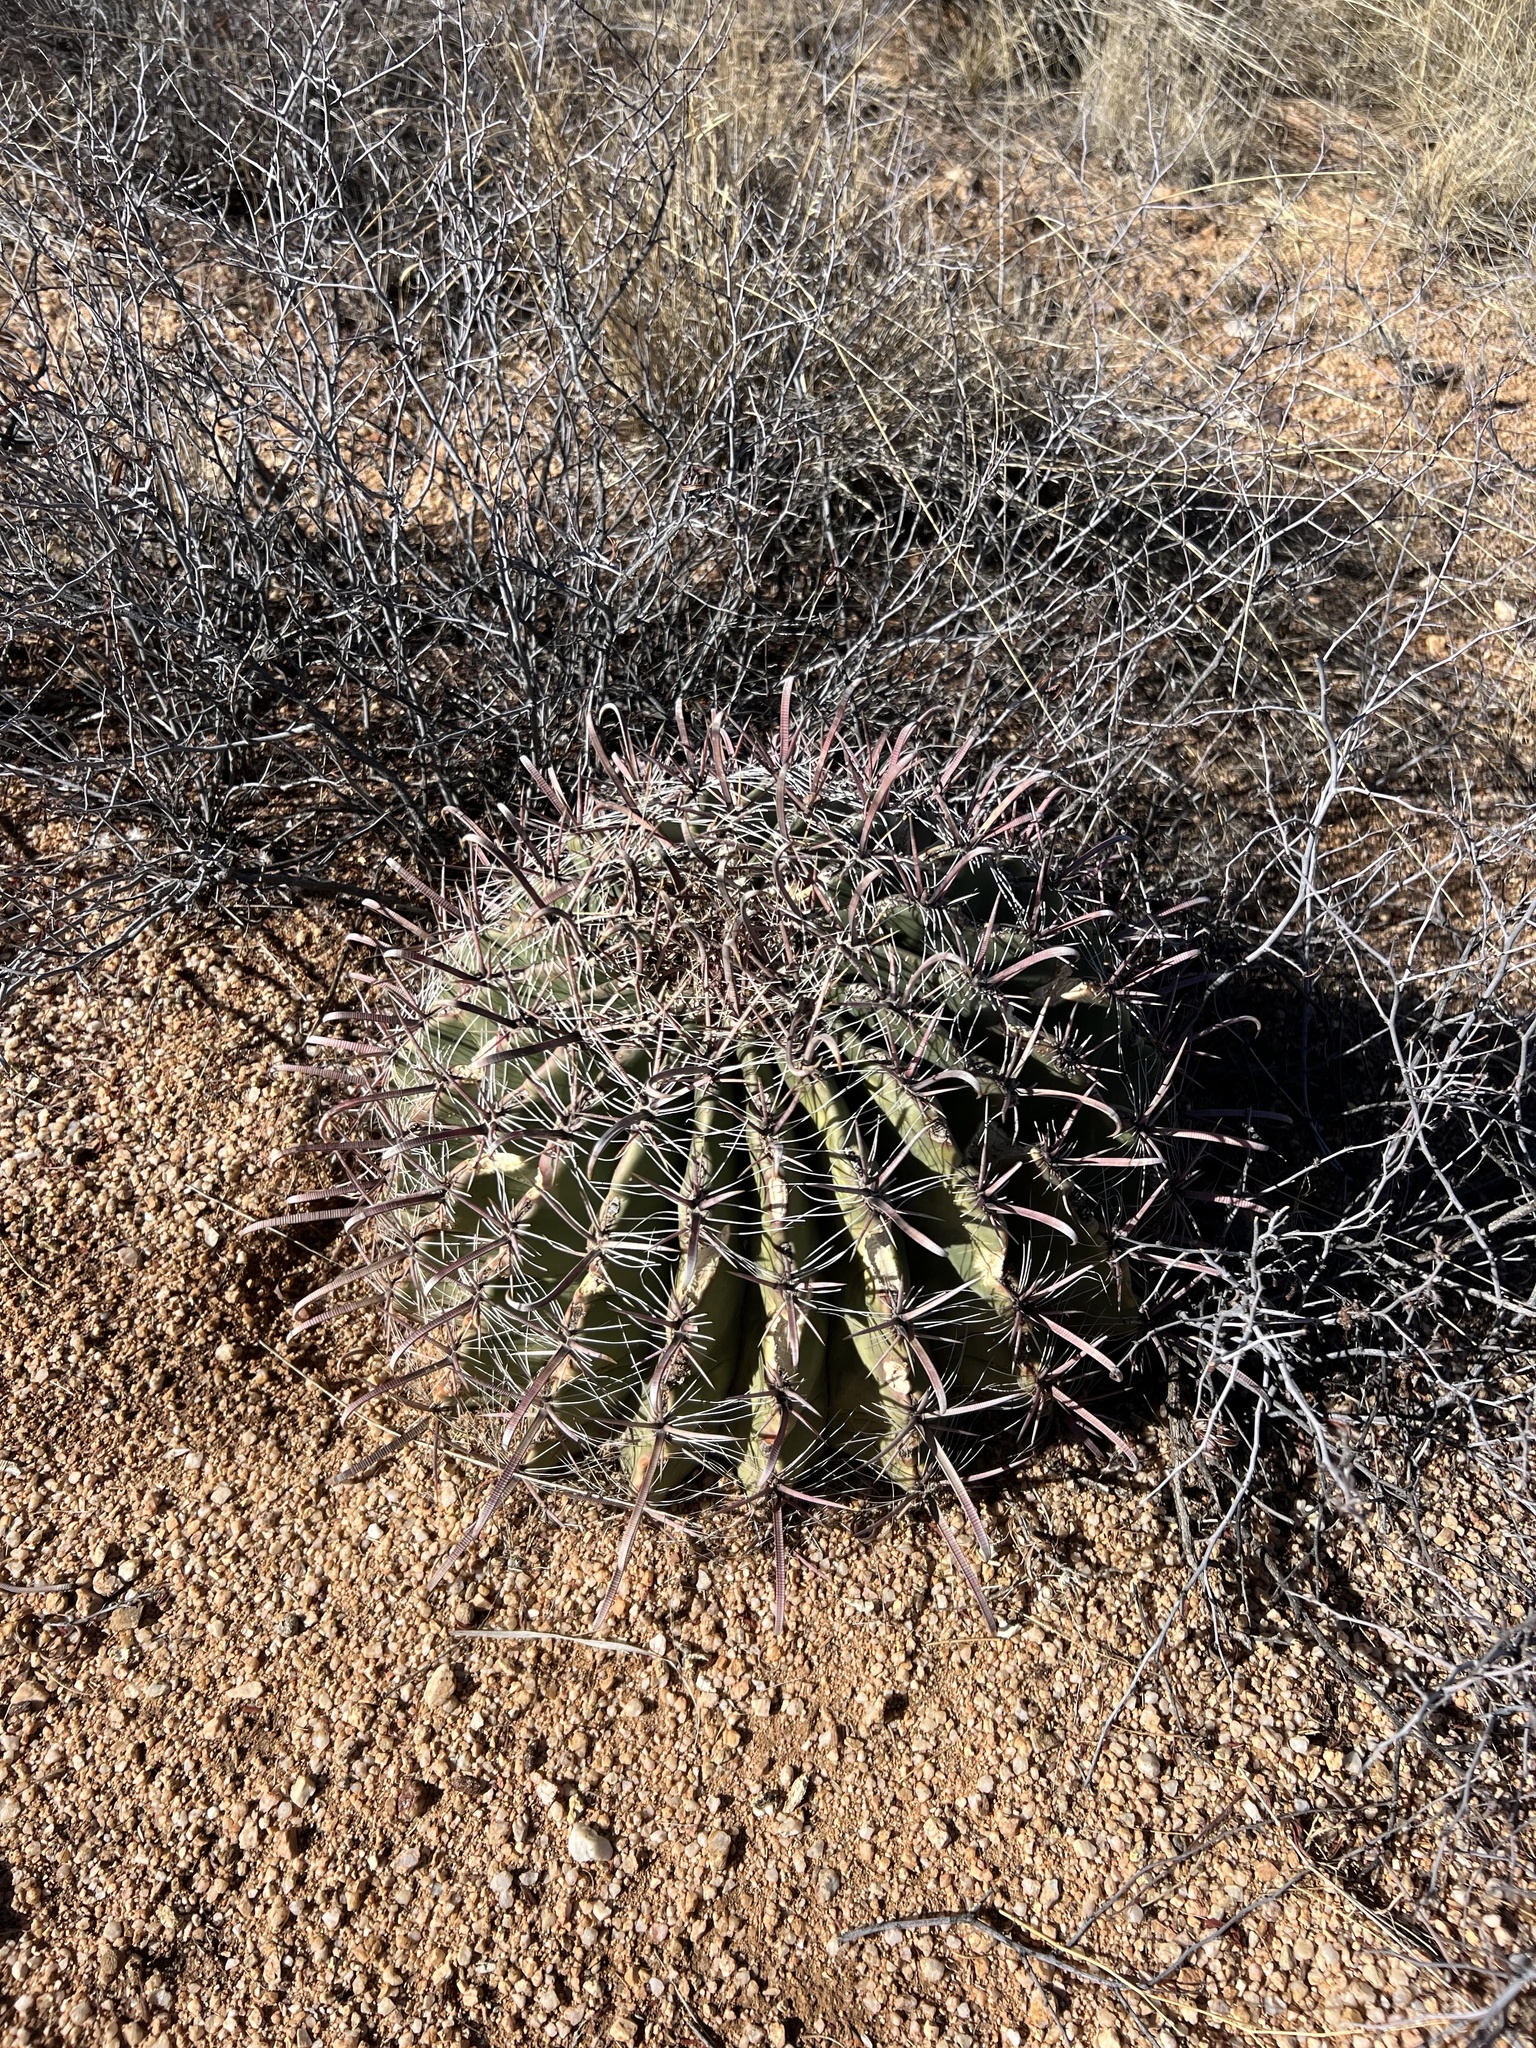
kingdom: Plantae
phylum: Tracheophyta
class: Magnoliopsida
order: Caryophyllales
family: Cactaceae
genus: Ferocactus
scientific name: Ferocactus wislizeni
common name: Candy barrel cactus
